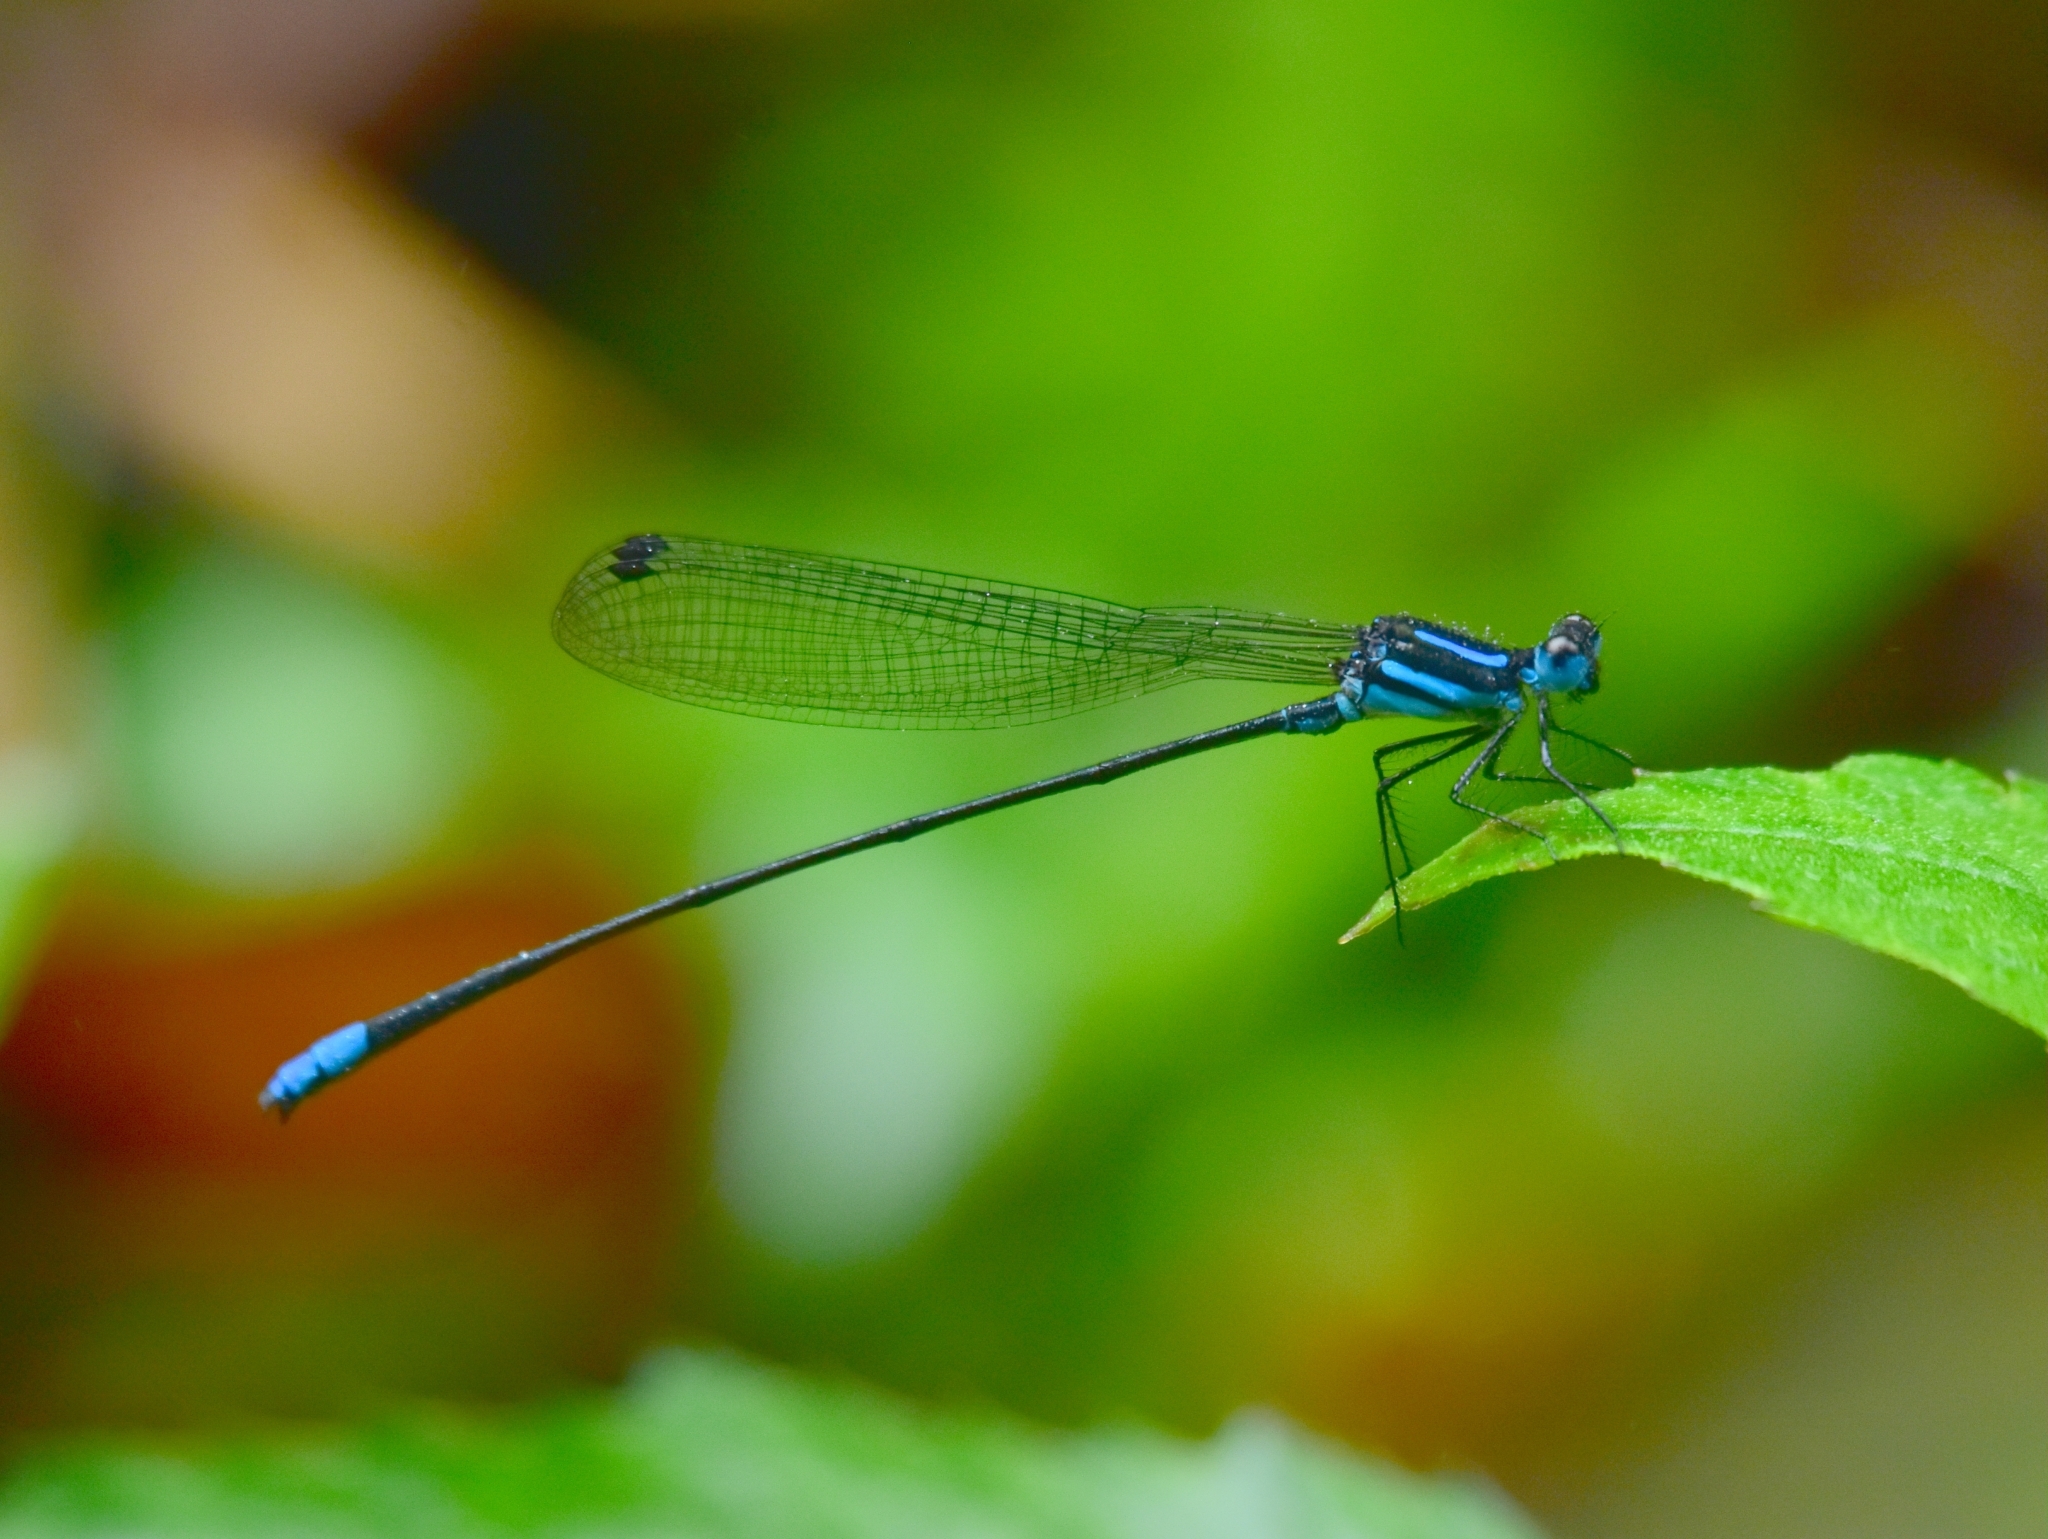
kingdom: Animalia
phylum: Arthropoda
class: Insecta
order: Odonata
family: Platycnemididae
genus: Esme
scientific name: Esme mudiensis
